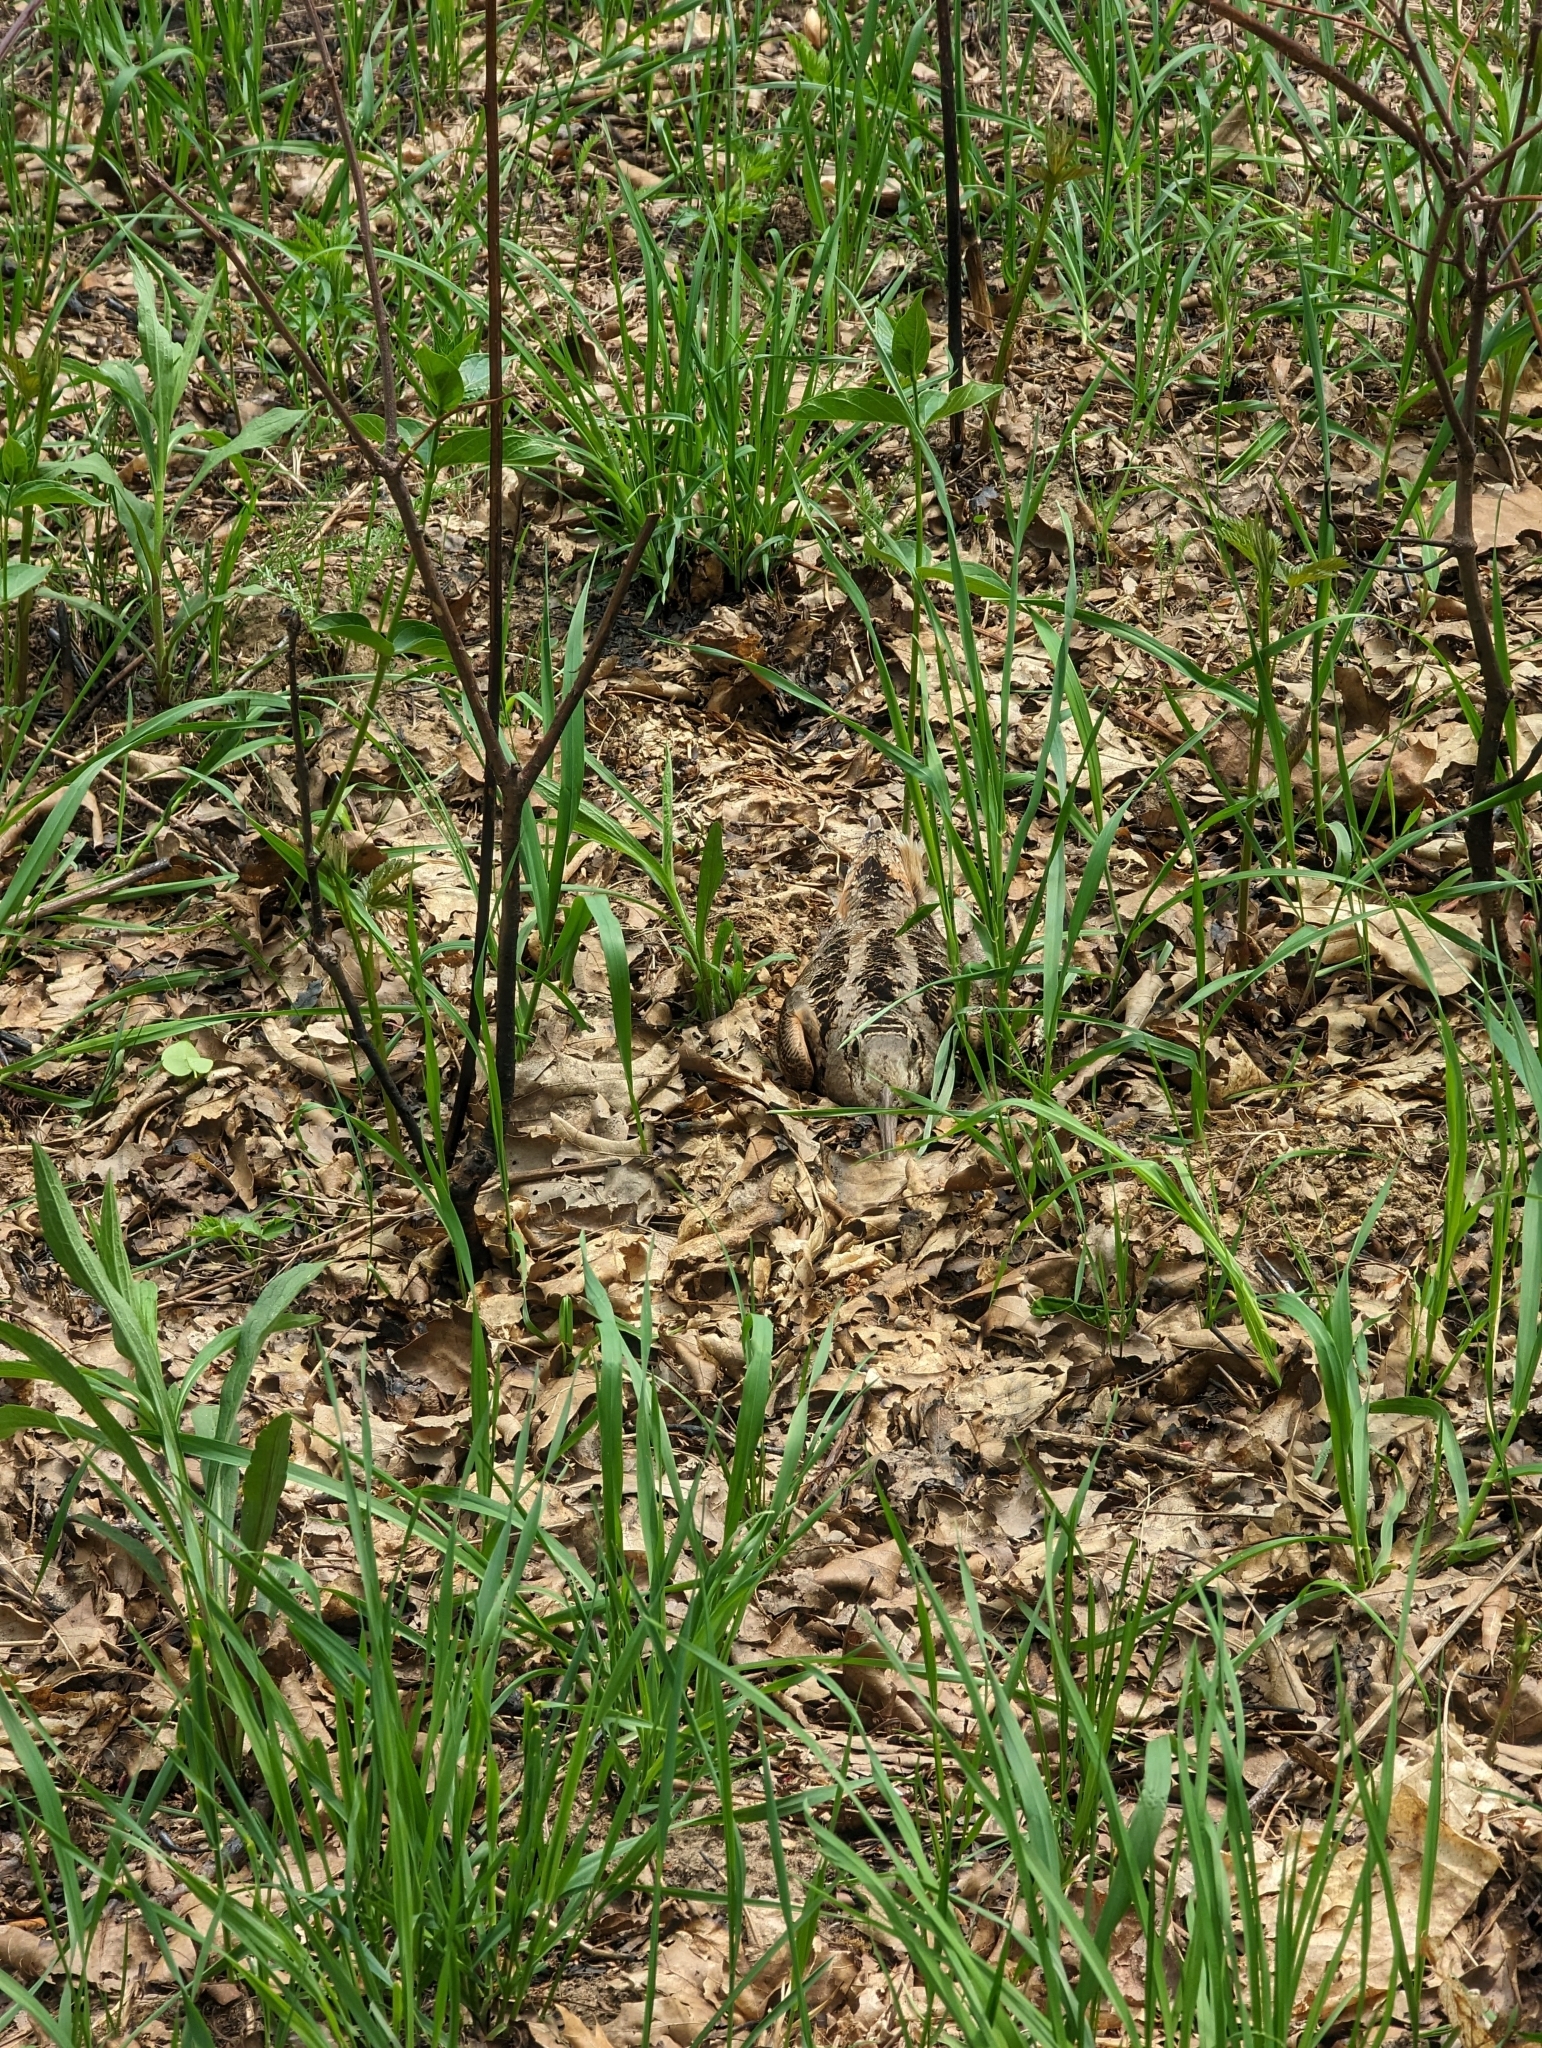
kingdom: Animalia
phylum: Chordata
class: Aves
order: Charadriiformes
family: Scolopacidae
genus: Scolopax
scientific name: Scolopax minor
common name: American woodcock
